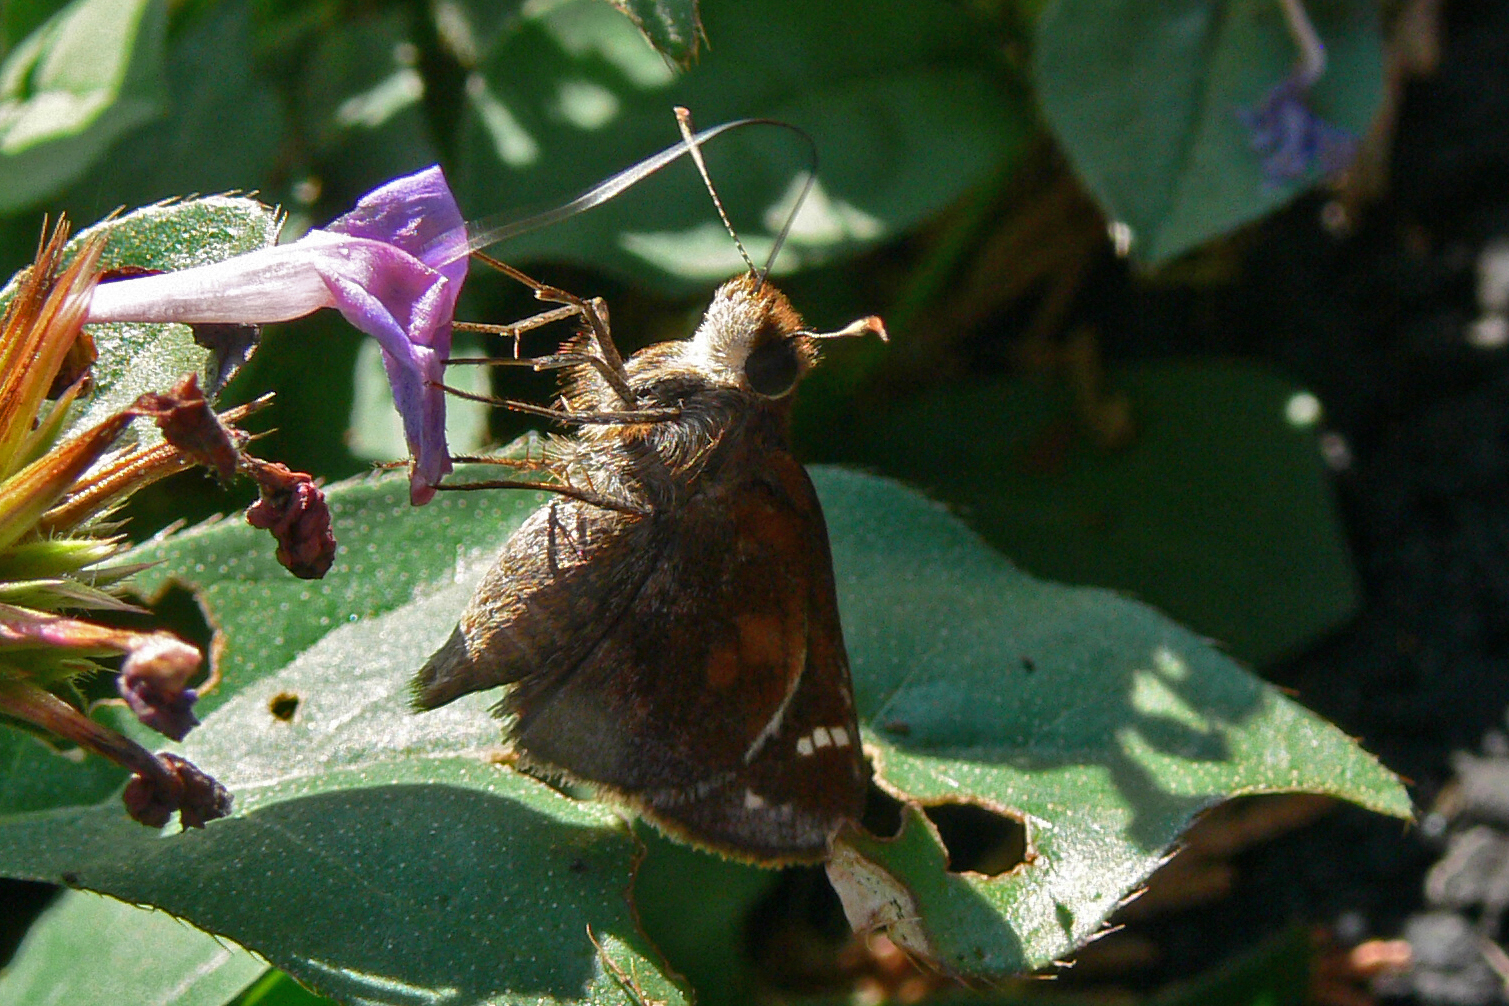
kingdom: Animalia
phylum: Arthropoda
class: Insecta
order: Lepidoptera
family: Hesperiidae
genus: Lon
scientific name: Lon zabulon
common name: Zabulon skipper
